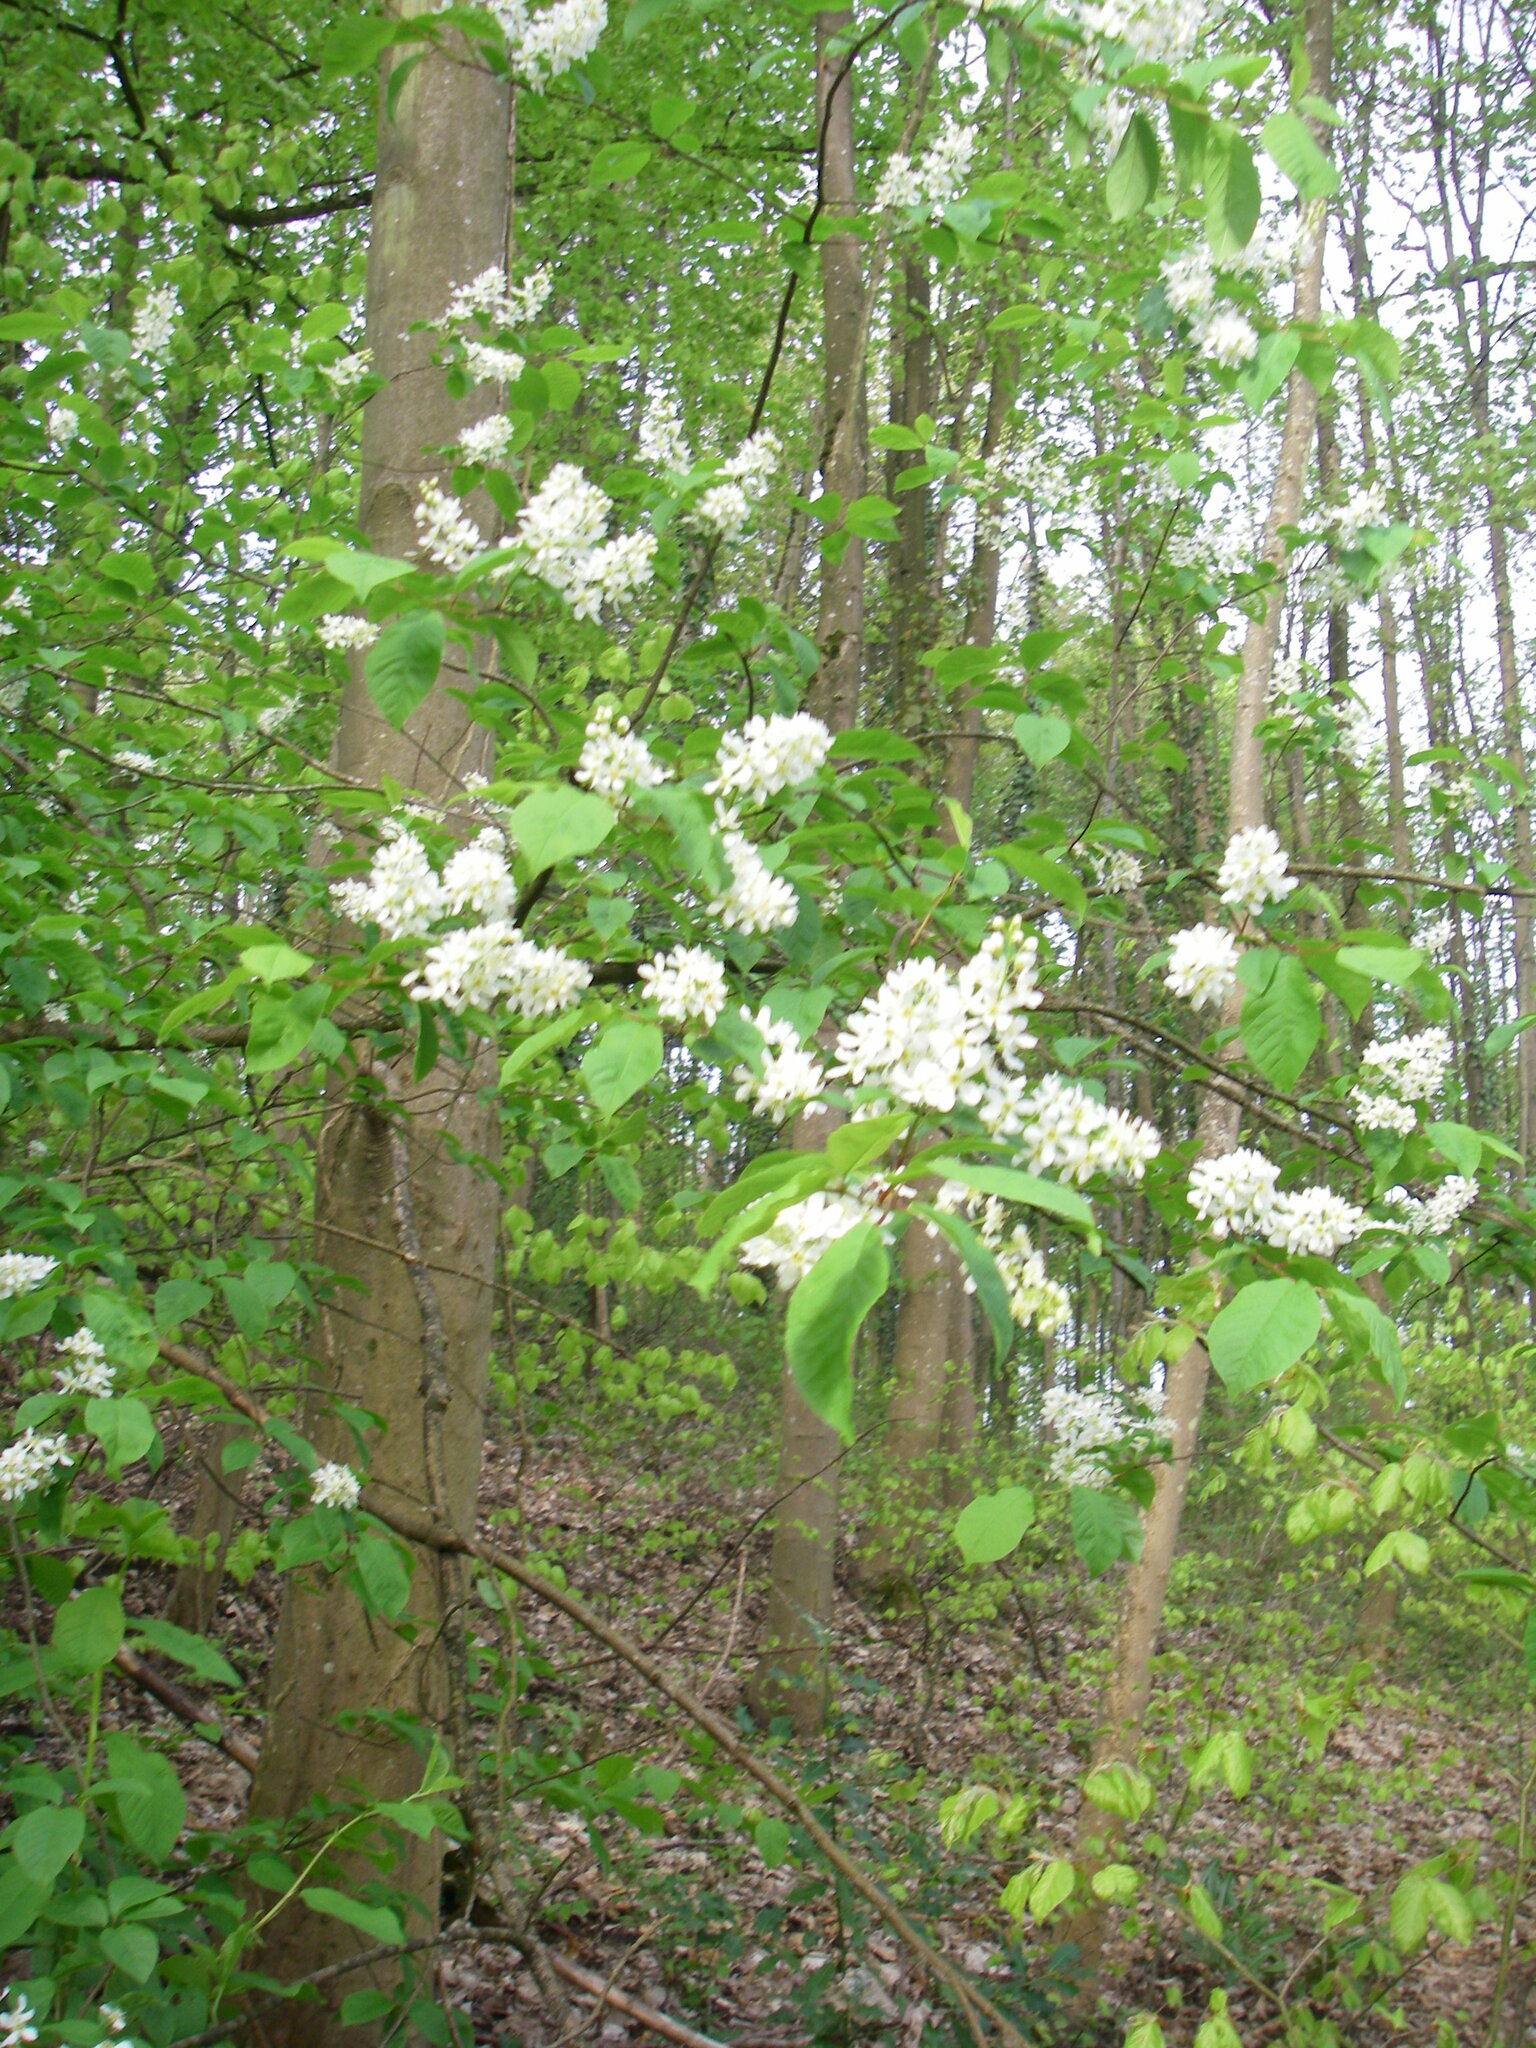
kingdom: Plantae
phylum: Tracheophyta
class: Magnoliopsida
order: Rosales
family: Rosaceae
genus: Prunus
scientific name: Prunus padus
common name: Bird cherry
